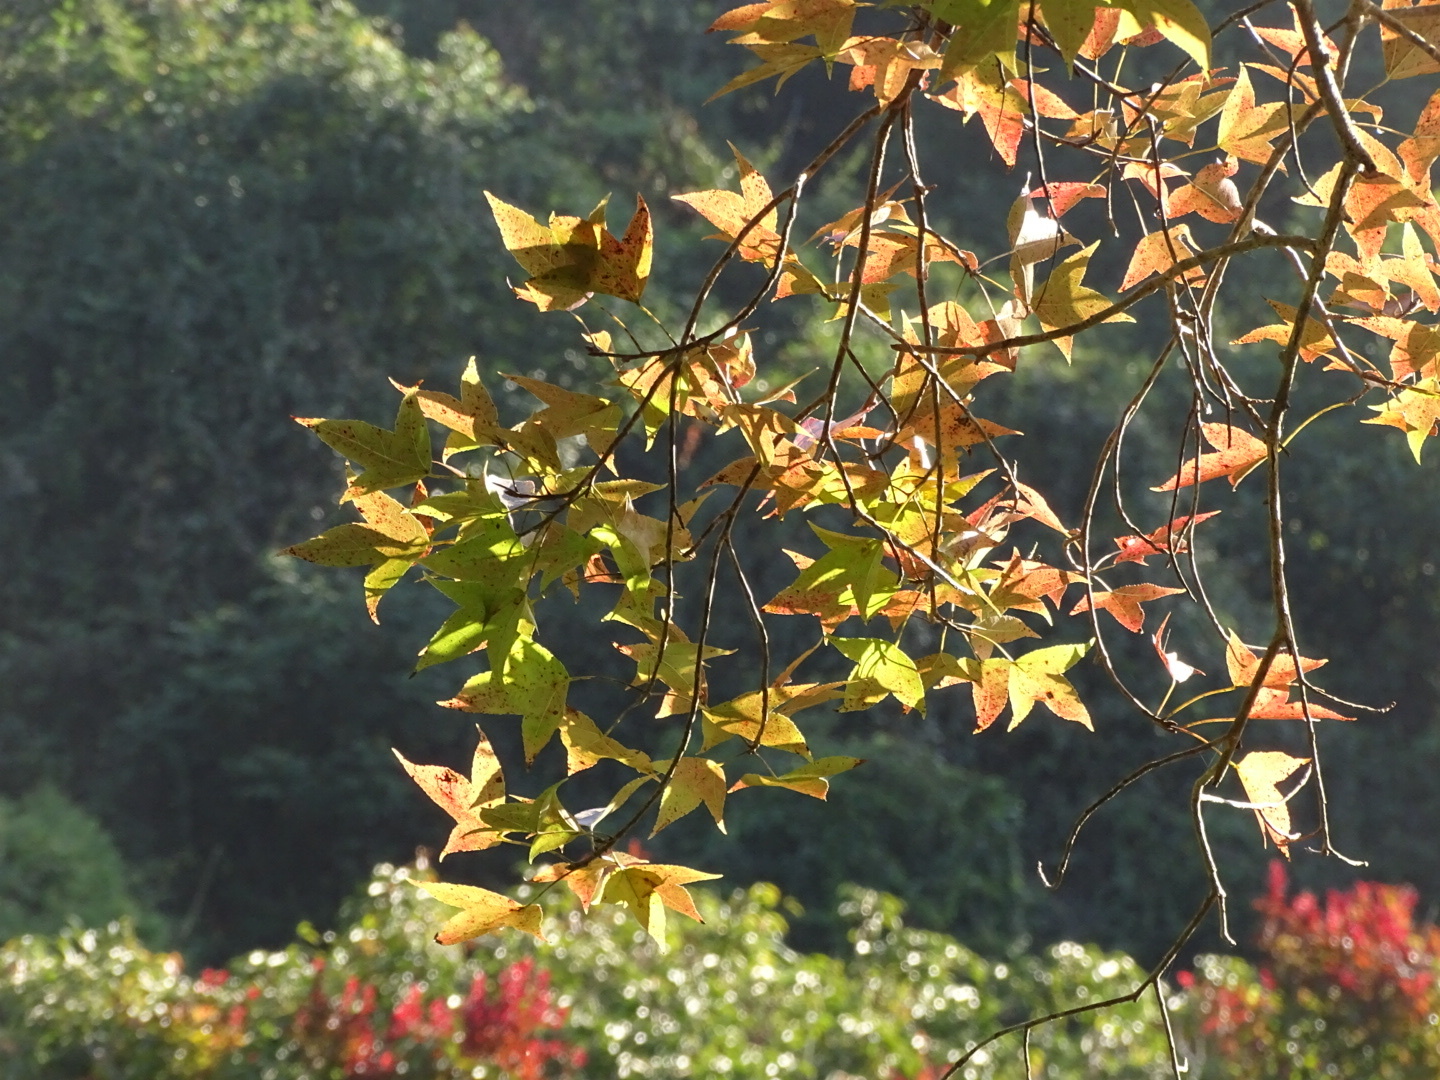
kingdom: Plantae
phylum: Tracheophyta
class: Magnoliopsida
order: Saxifragales
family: Altingiaceae
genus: Liquidambar
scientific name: Liquidambar formosana
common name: Chinese sweet gum
